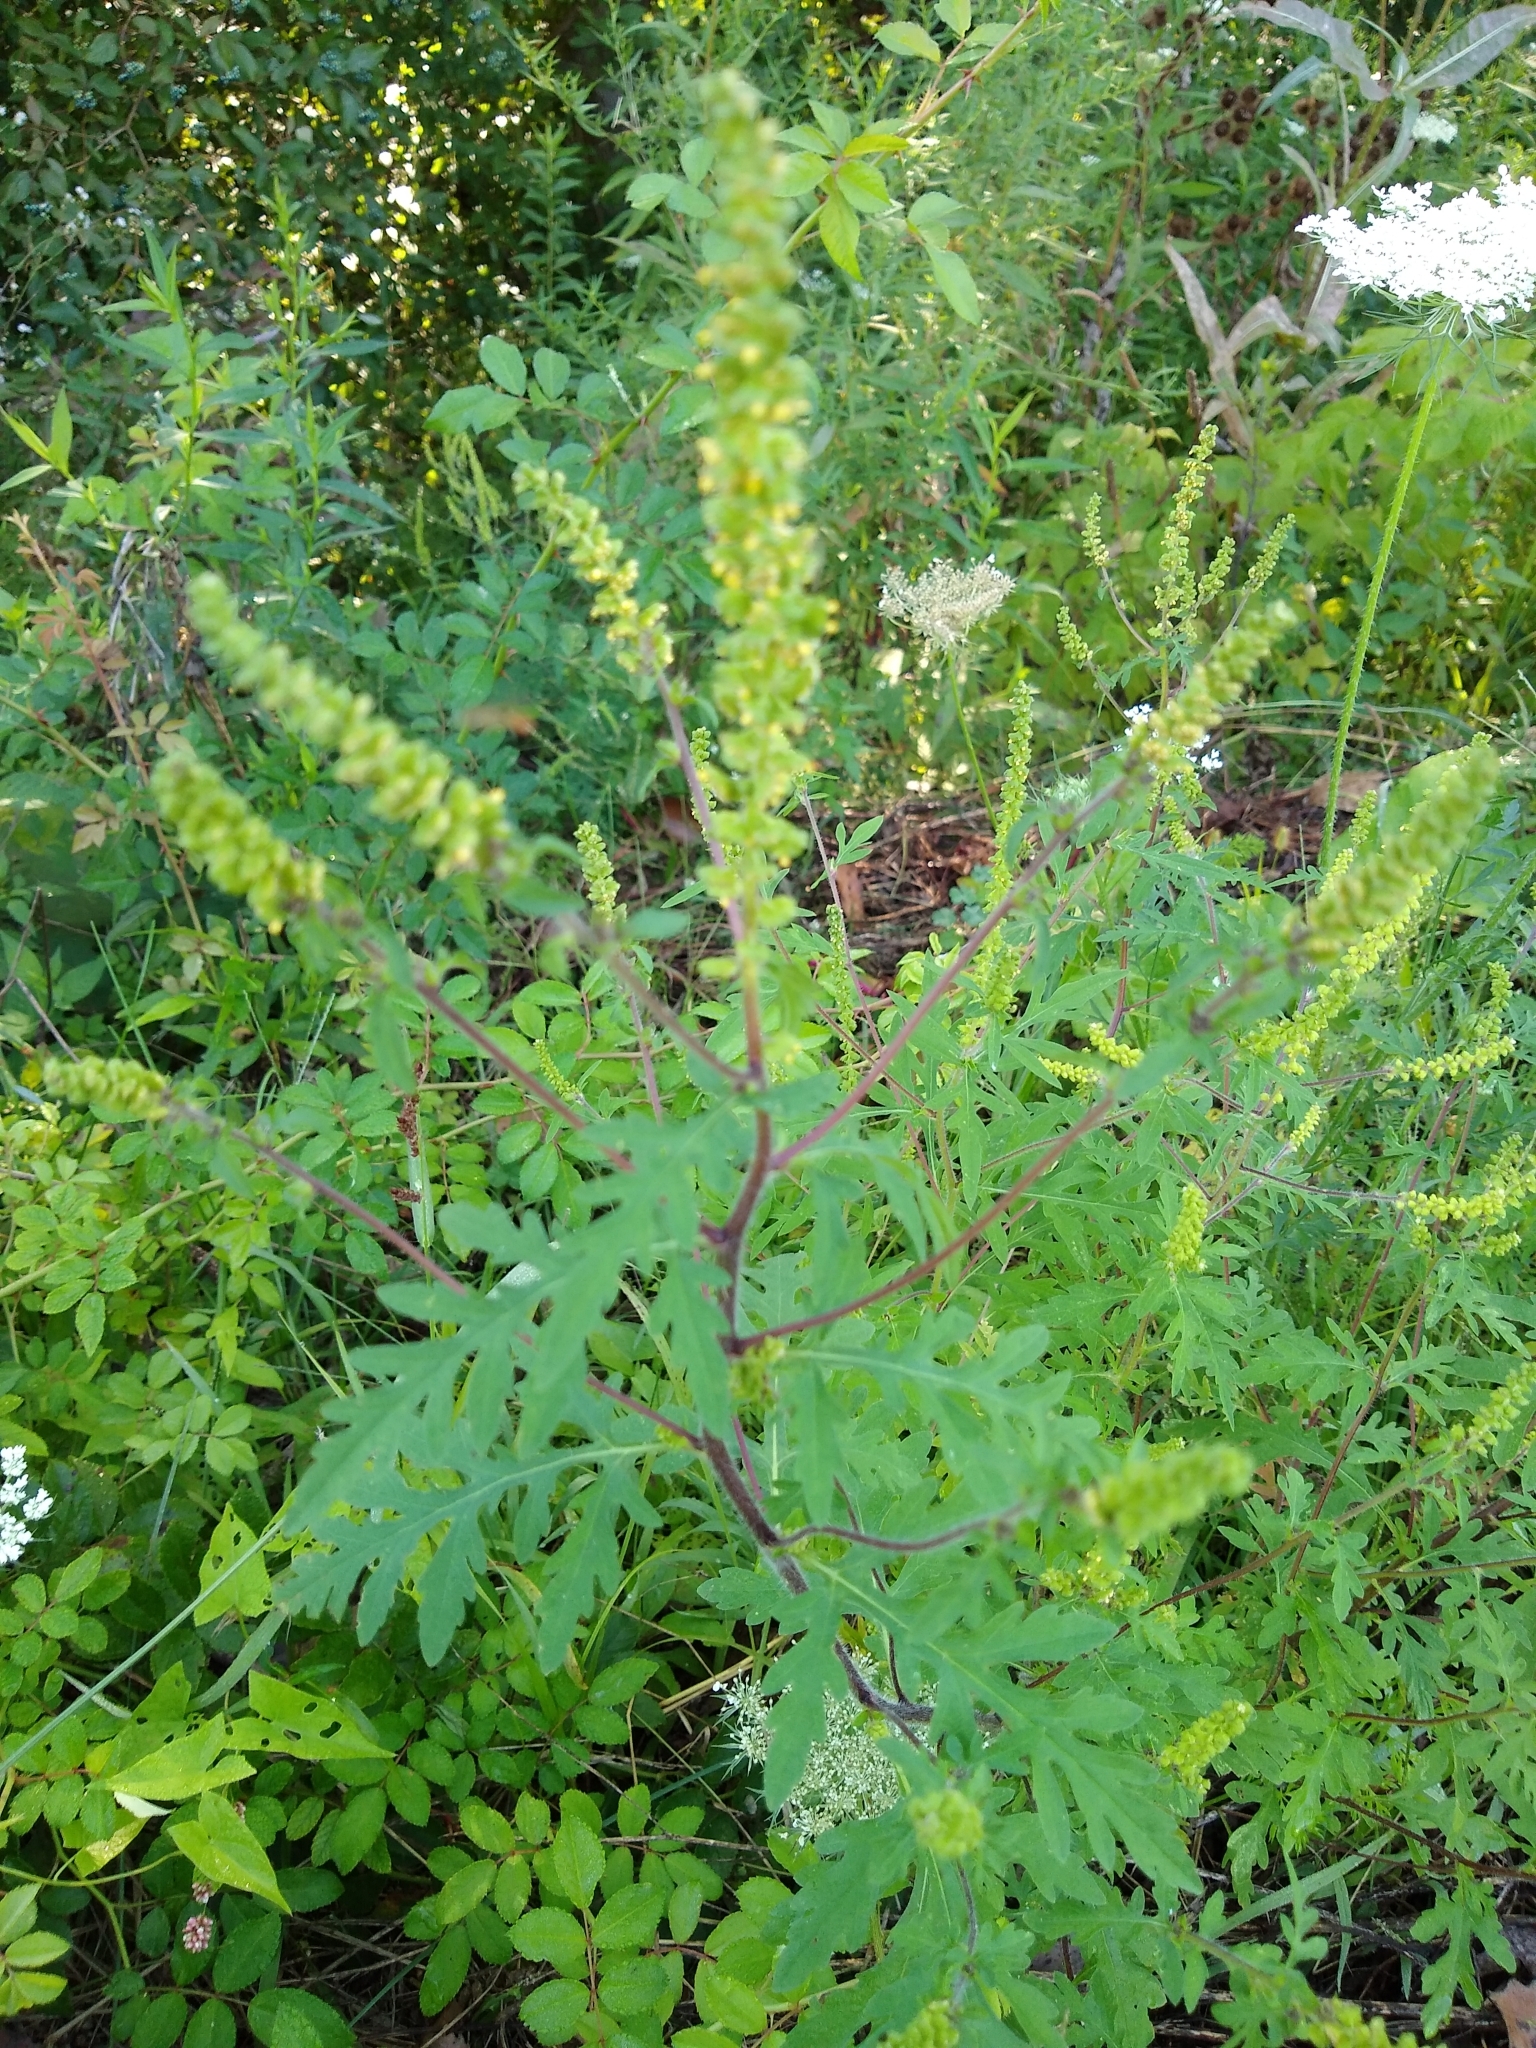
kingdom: Plantae
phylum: Tracheophyta
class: Magnoliopsida
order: Asterales
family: Asteraceae
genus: Ambrosia
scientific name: Ambrosia artemisiifolia
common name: Annual ragweed
